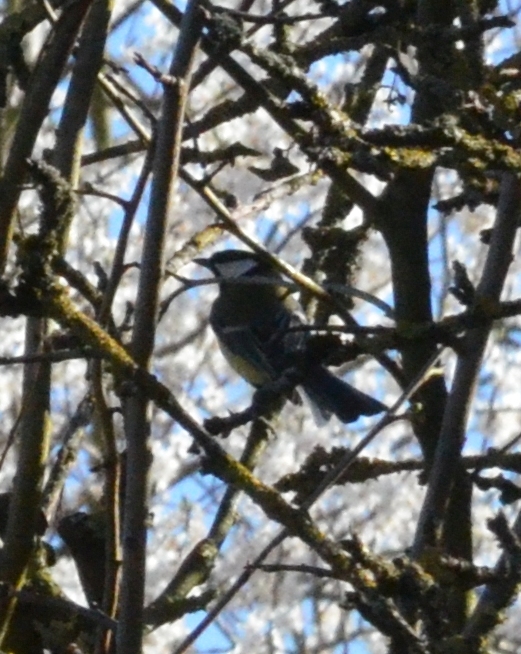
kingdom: Animalia
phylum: Chordata
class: Aves
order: Passeriformes
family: Paridae
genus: Parus
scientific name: Parus major
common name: Great tit
